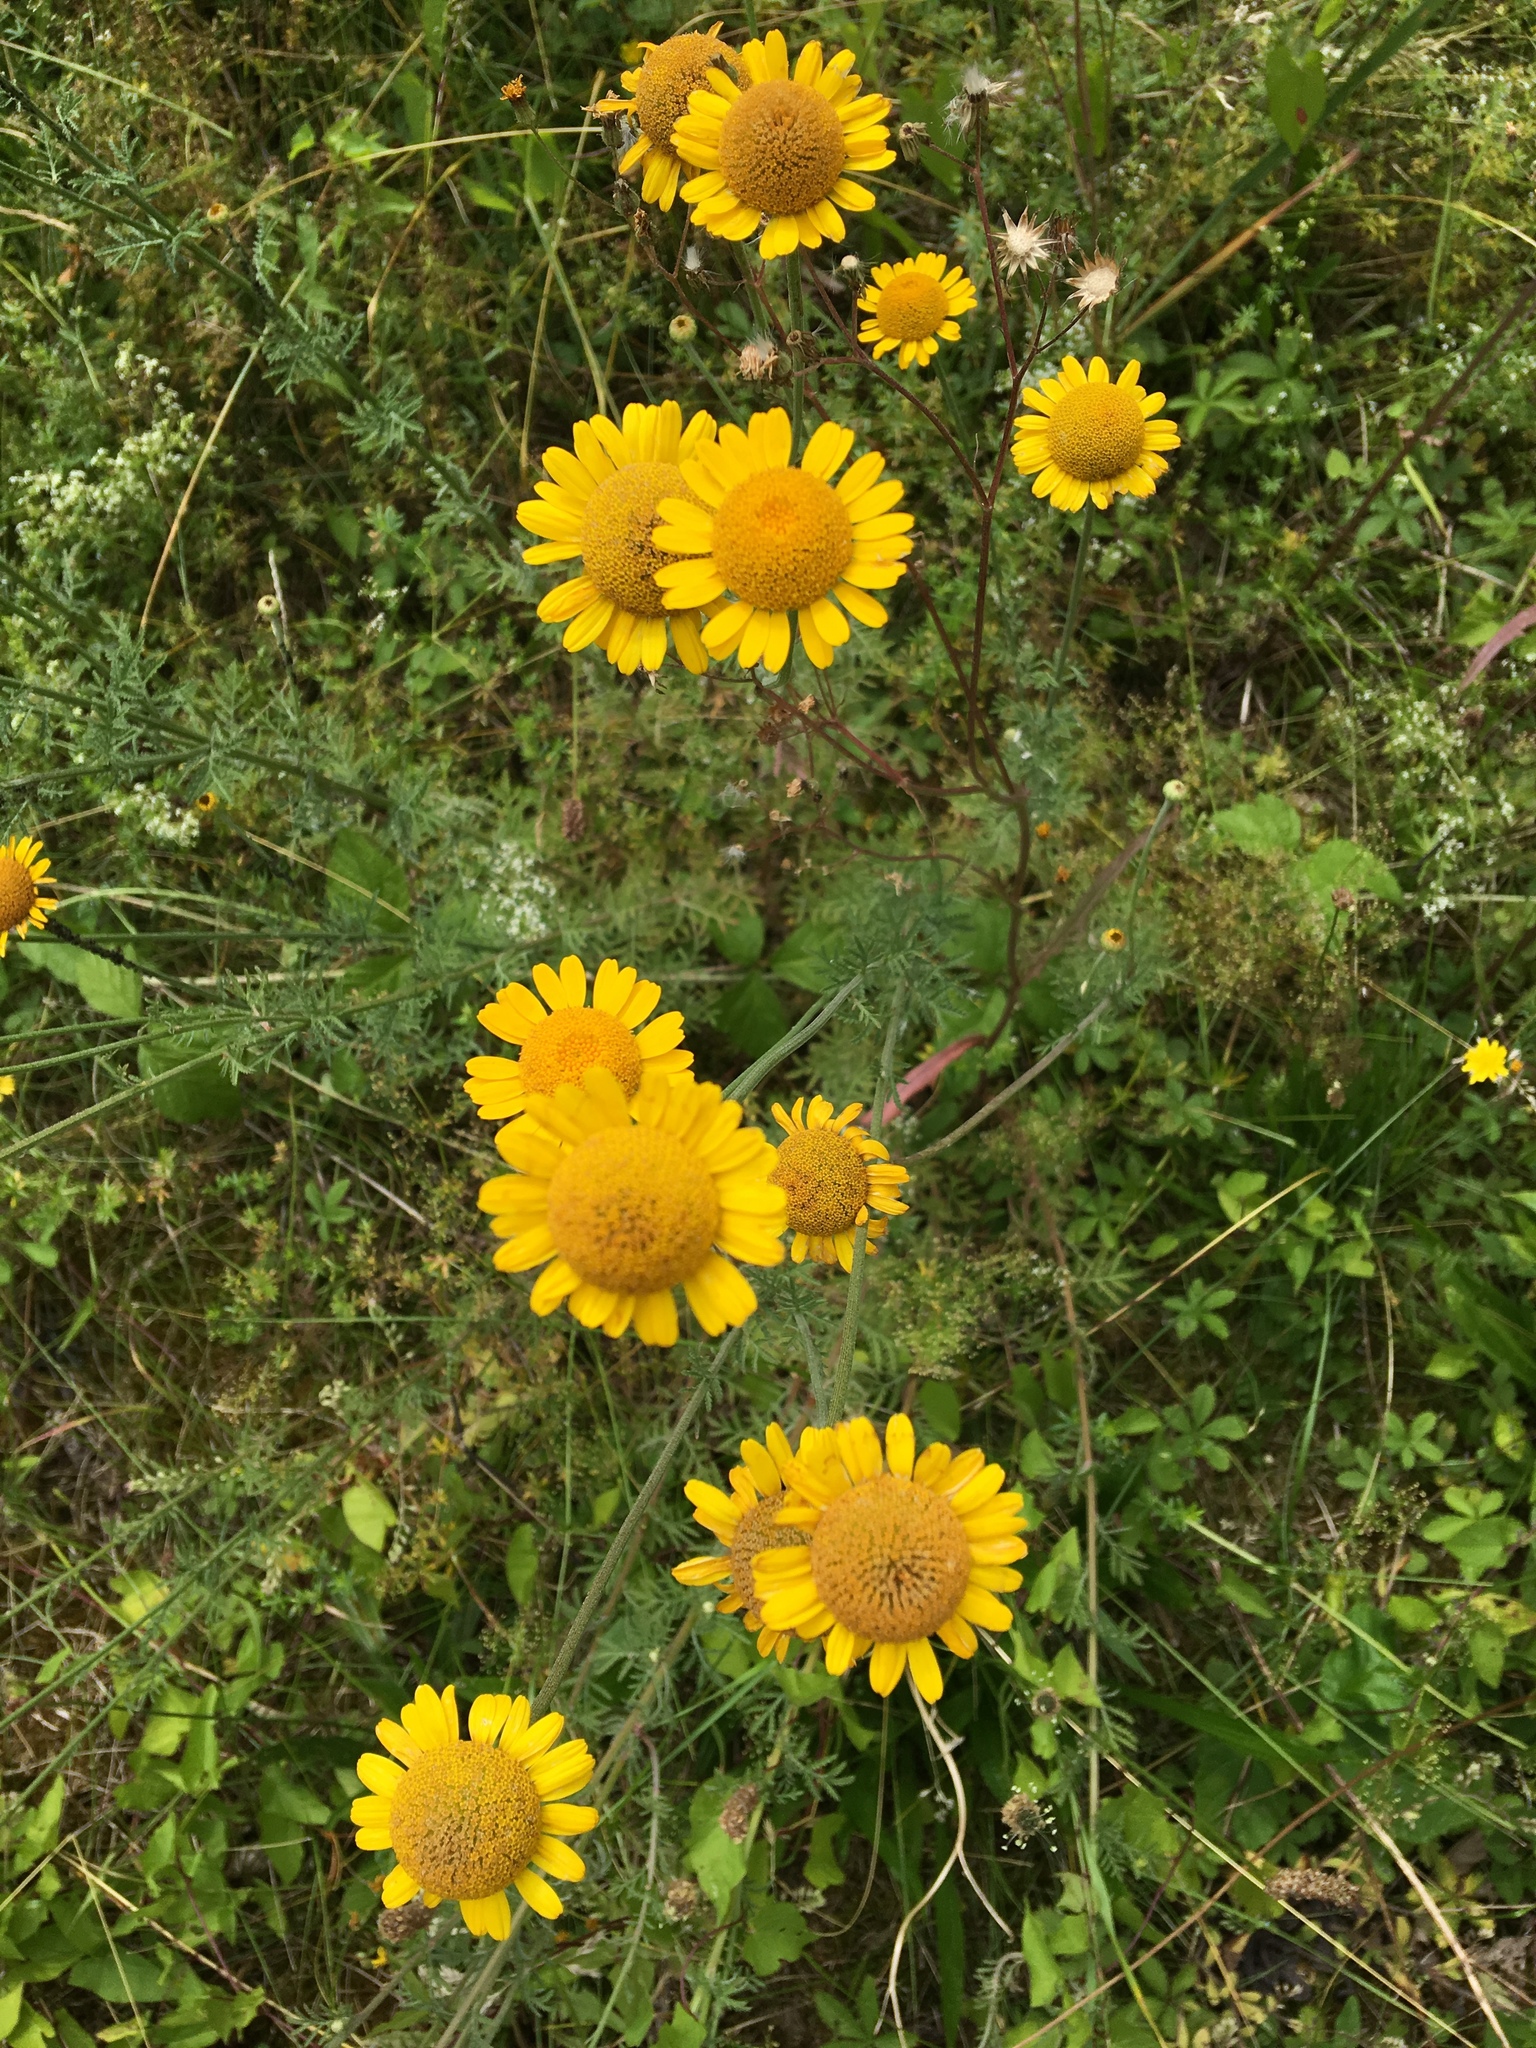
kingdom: Plantae
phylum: Tracheophyta
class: Magnoliopsida
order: Asterales
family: Asteraceae
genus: Cota
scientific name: Cota tinctoria
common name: Golden chamomile
